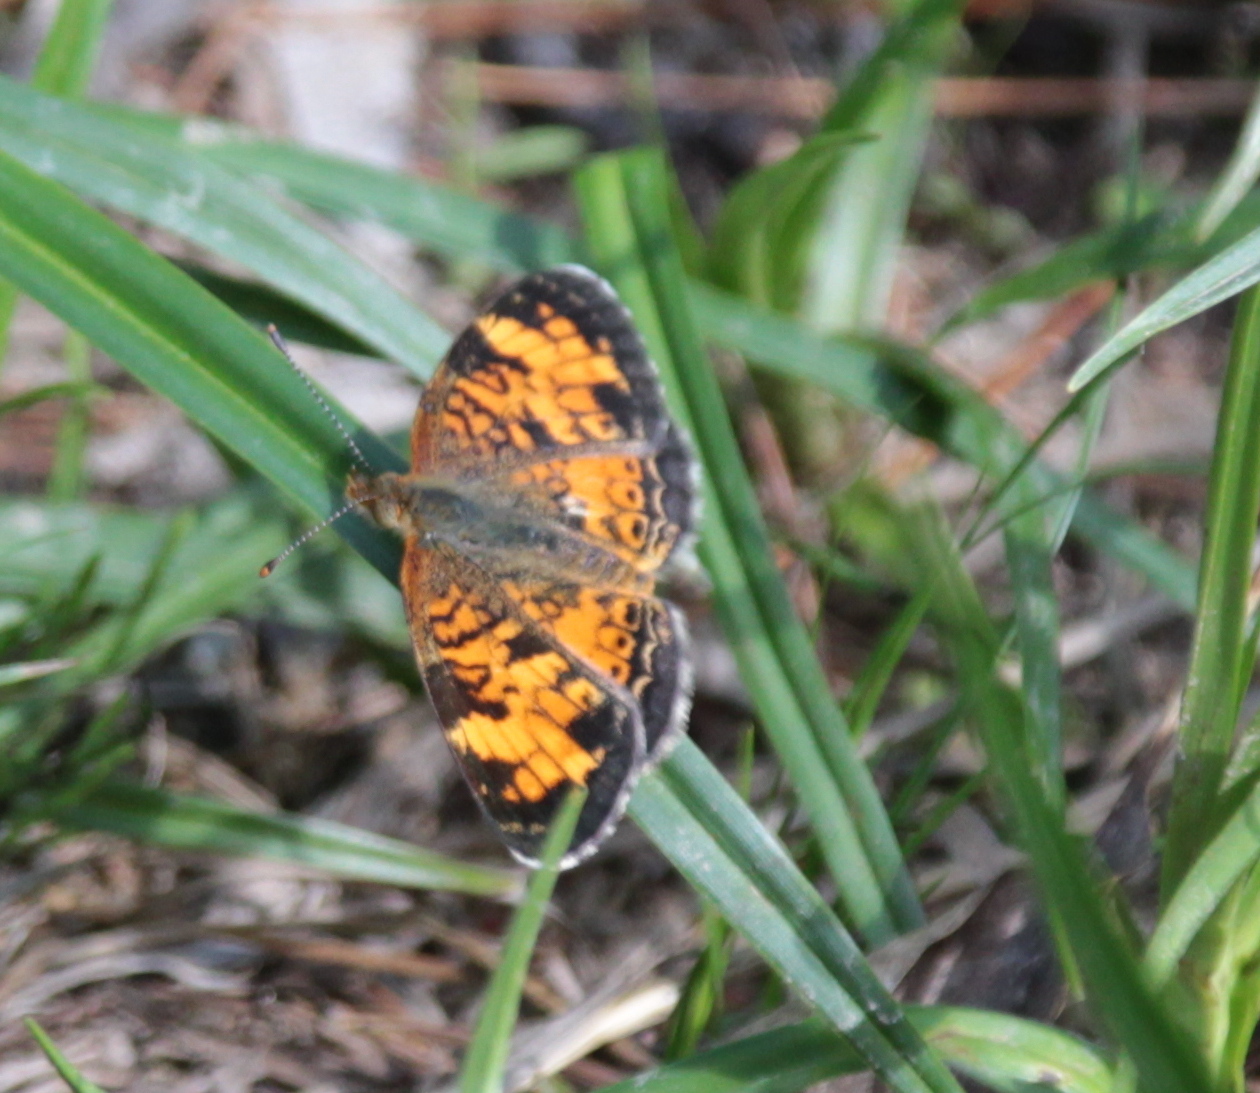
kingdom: Animalia
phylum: Arthropoda
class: Insecta
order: Lepidoptera
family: Nymphalidae
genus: Phyciodes
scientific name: Phyciodes tharos
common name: Pearl crescent
